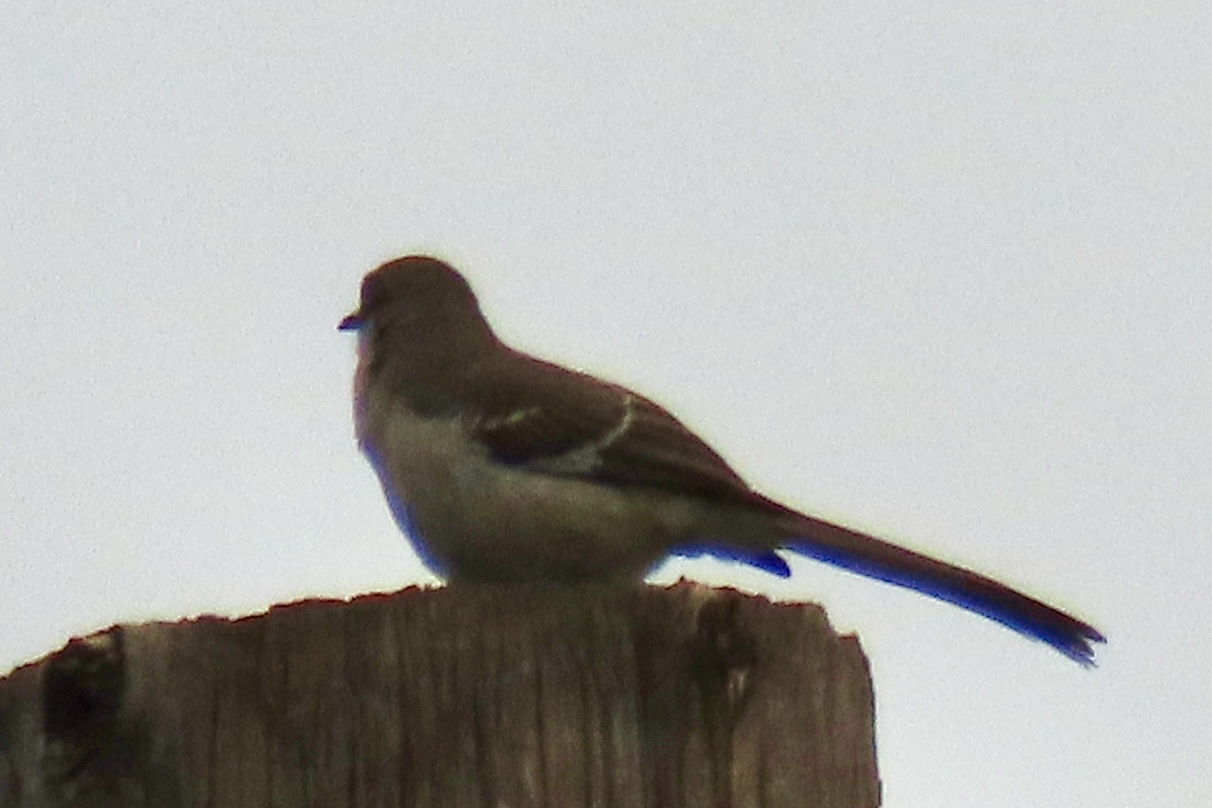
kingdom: Animalia
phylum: Chordata
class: Aves
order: Passeriformes
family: Mimidae
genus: Mimus
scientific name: Mimus polyglottos
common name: Northern mockingbird
